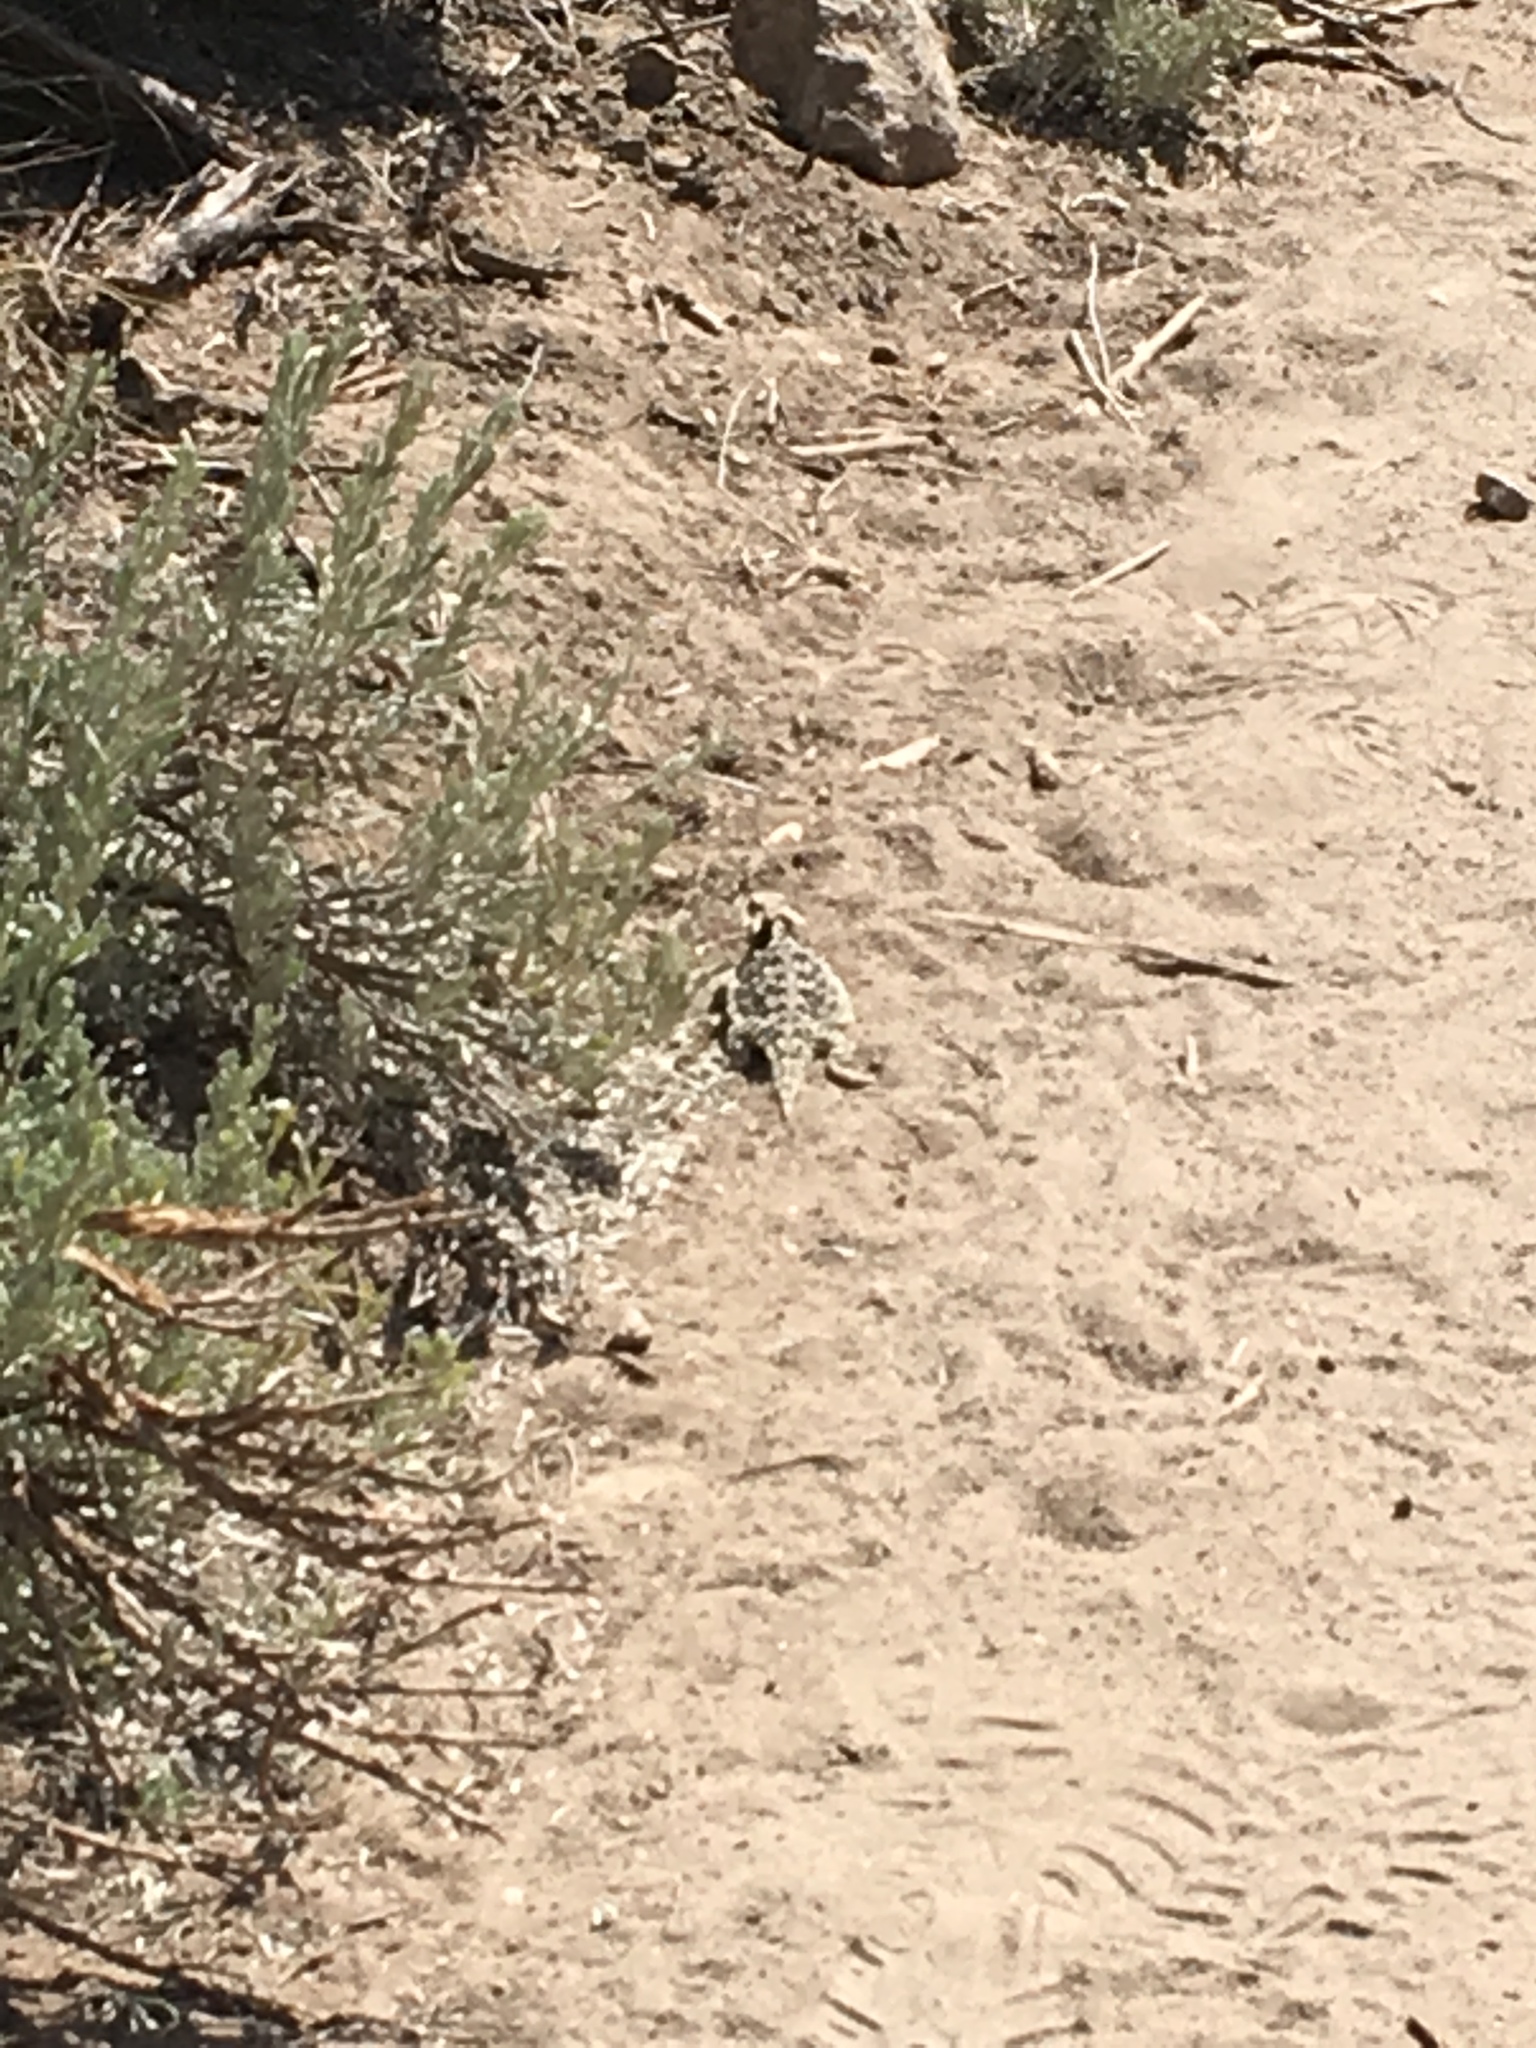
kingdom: Animalia
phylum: Chordata
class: Squamata
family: Phrynosomatidae
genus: Phrynosoma
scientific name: Phrynosoma blainvillii
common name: San diego horned lizard
